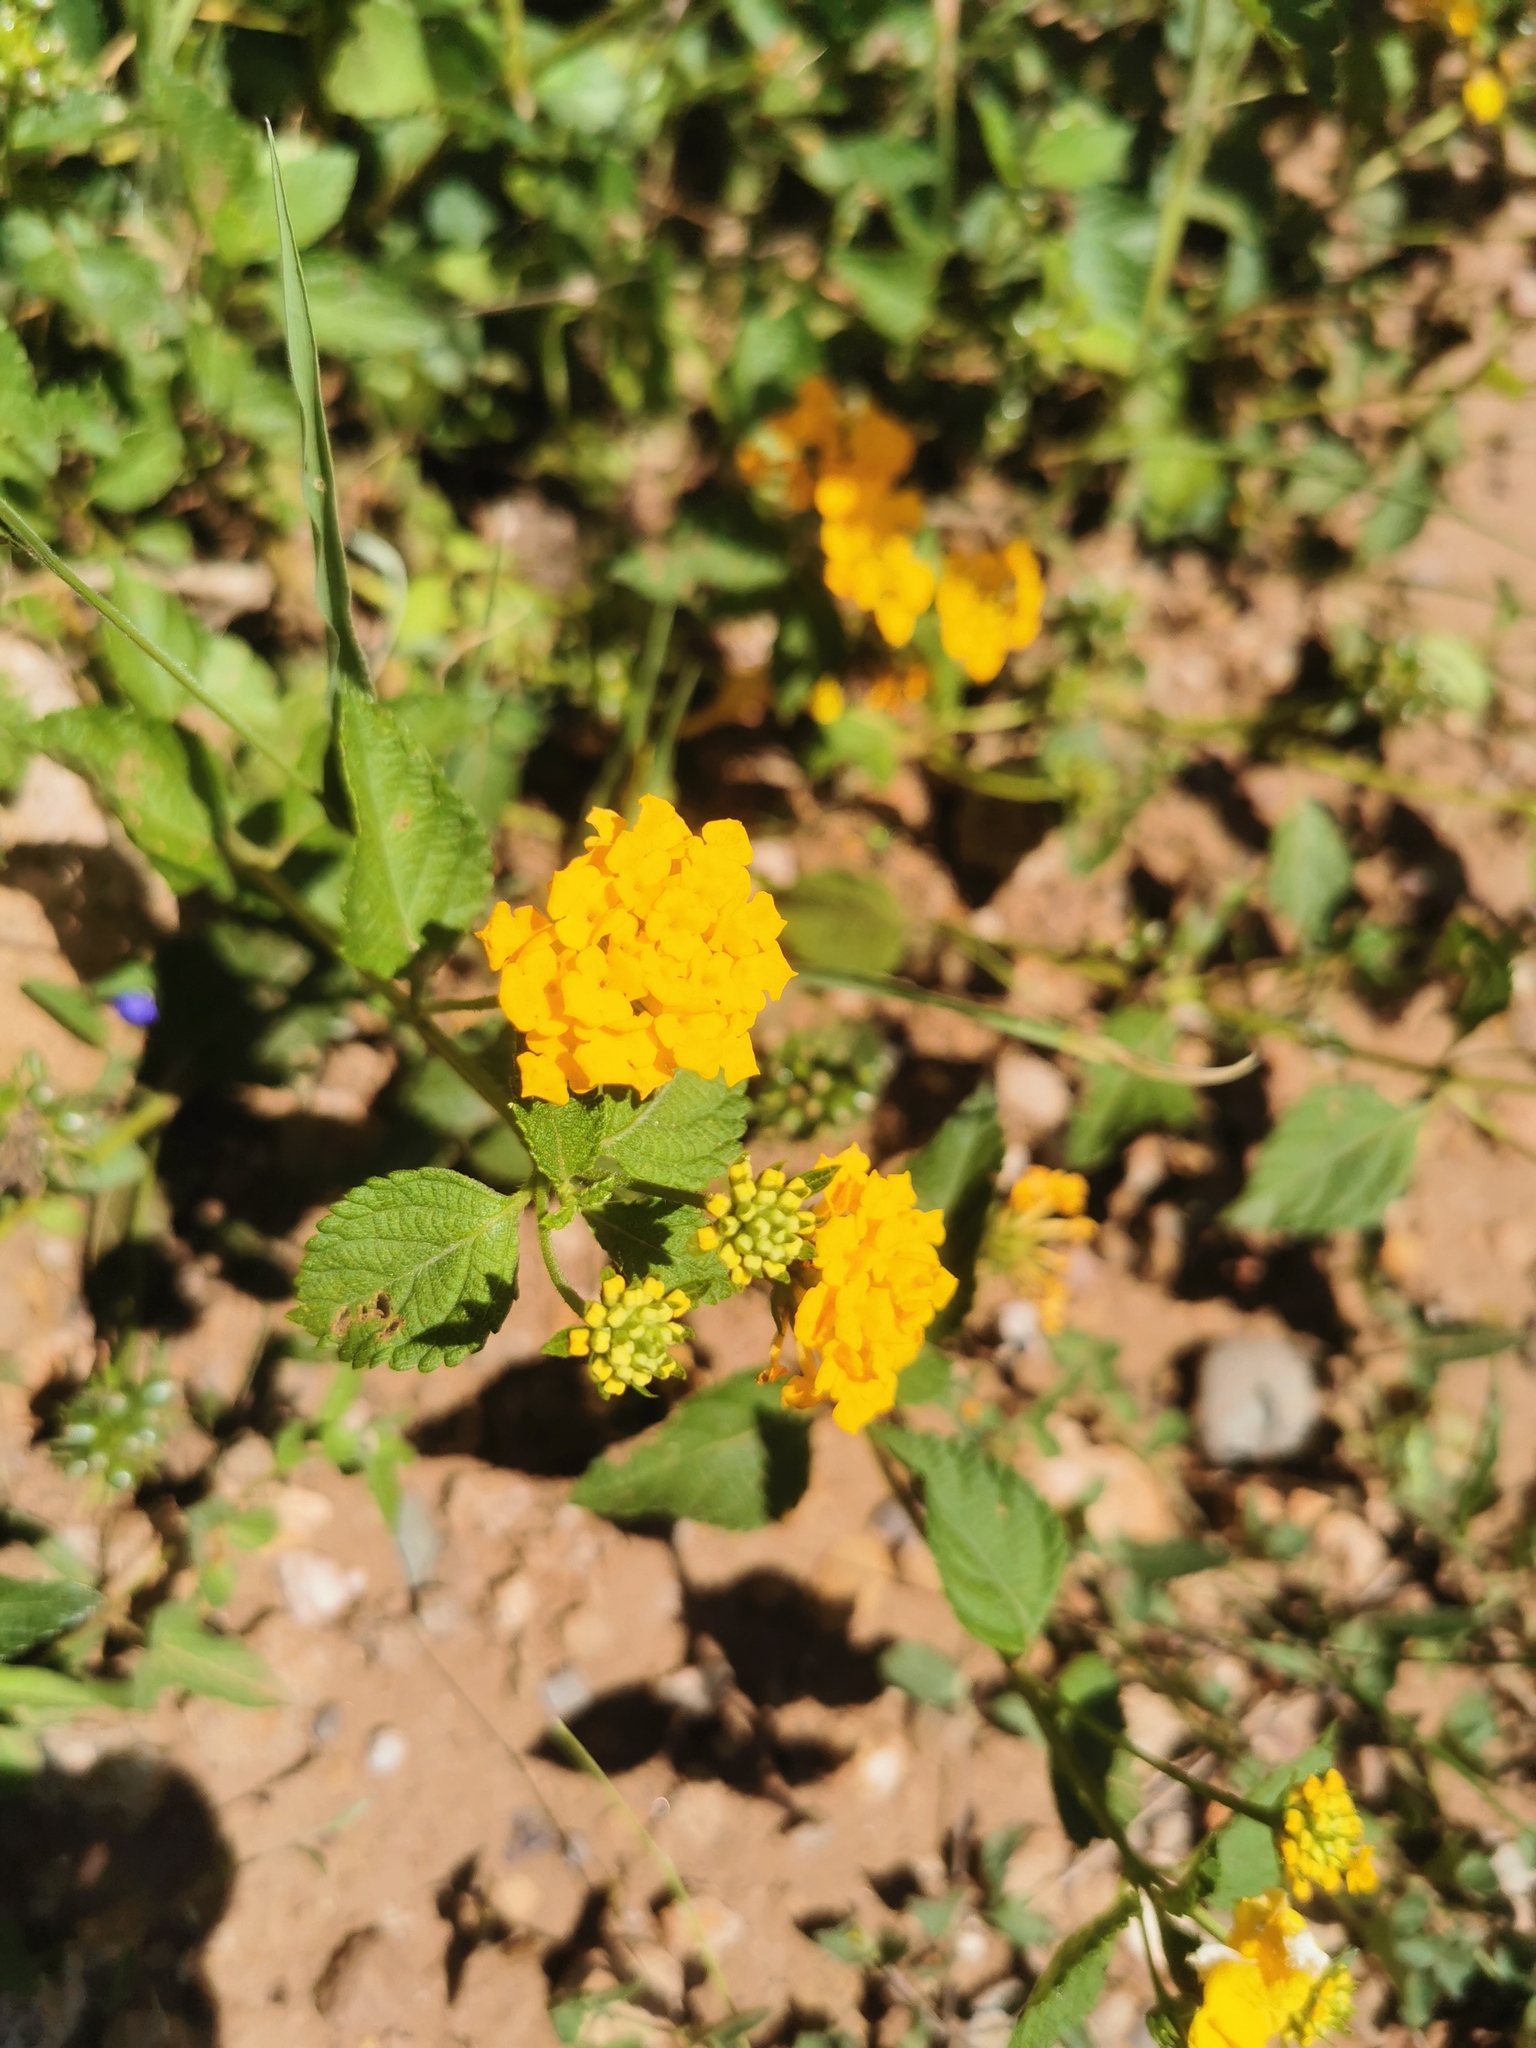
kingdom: Plantae
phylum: Tracheophyta
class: Magnoliopsida
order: Lamiales
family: Verbenaceae
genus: Lantana
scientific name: Lantana polyacantha
